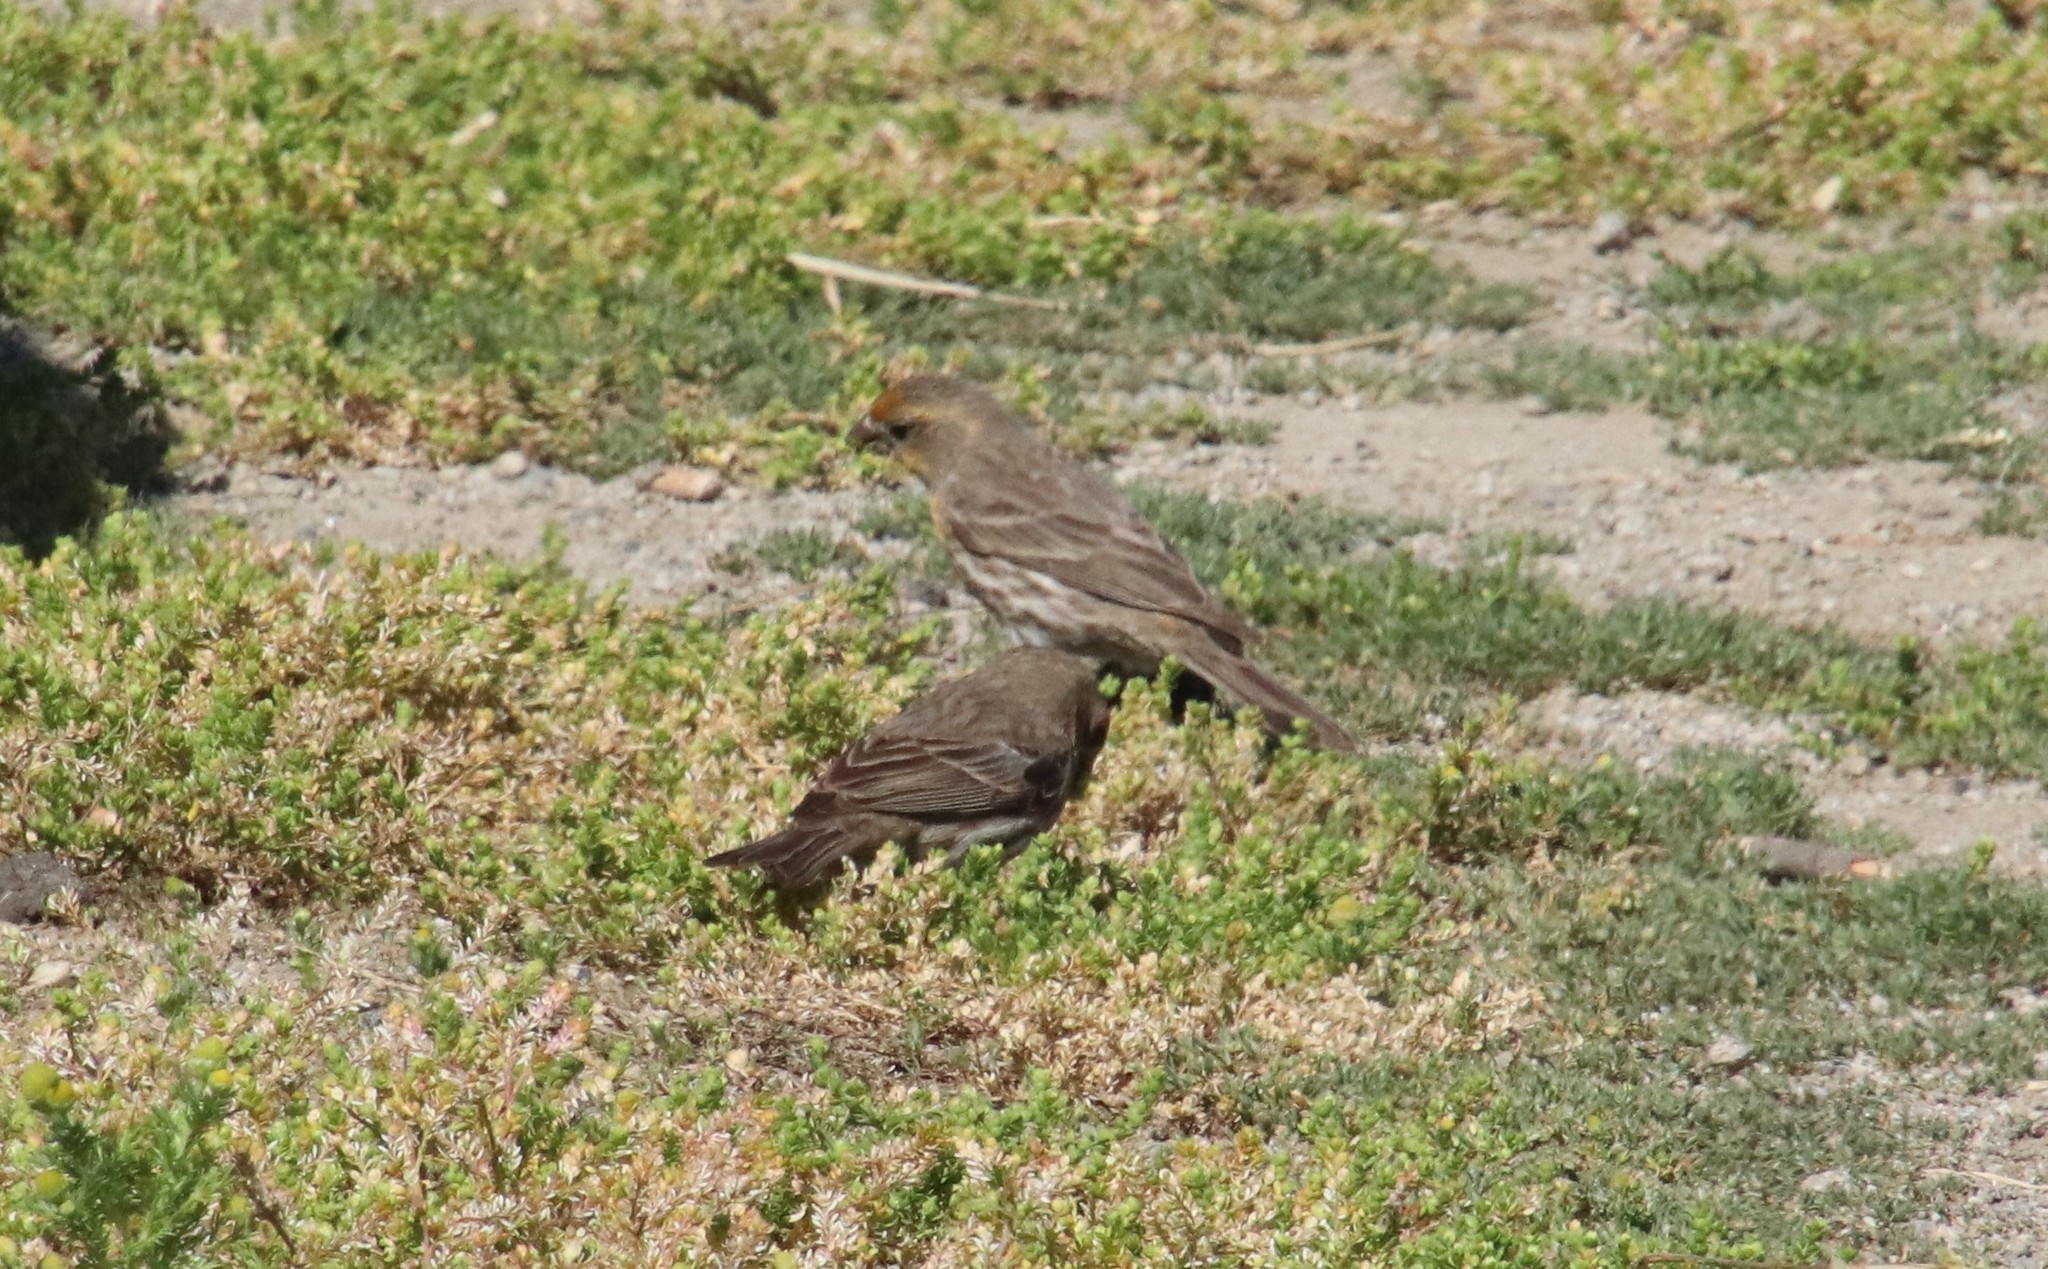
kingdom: Animalia
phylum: Chordata
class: Aves
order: Passeriformes
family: Fringillidae
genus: Haemorhous
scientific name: Haemorhous mexicanus
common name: House finch
